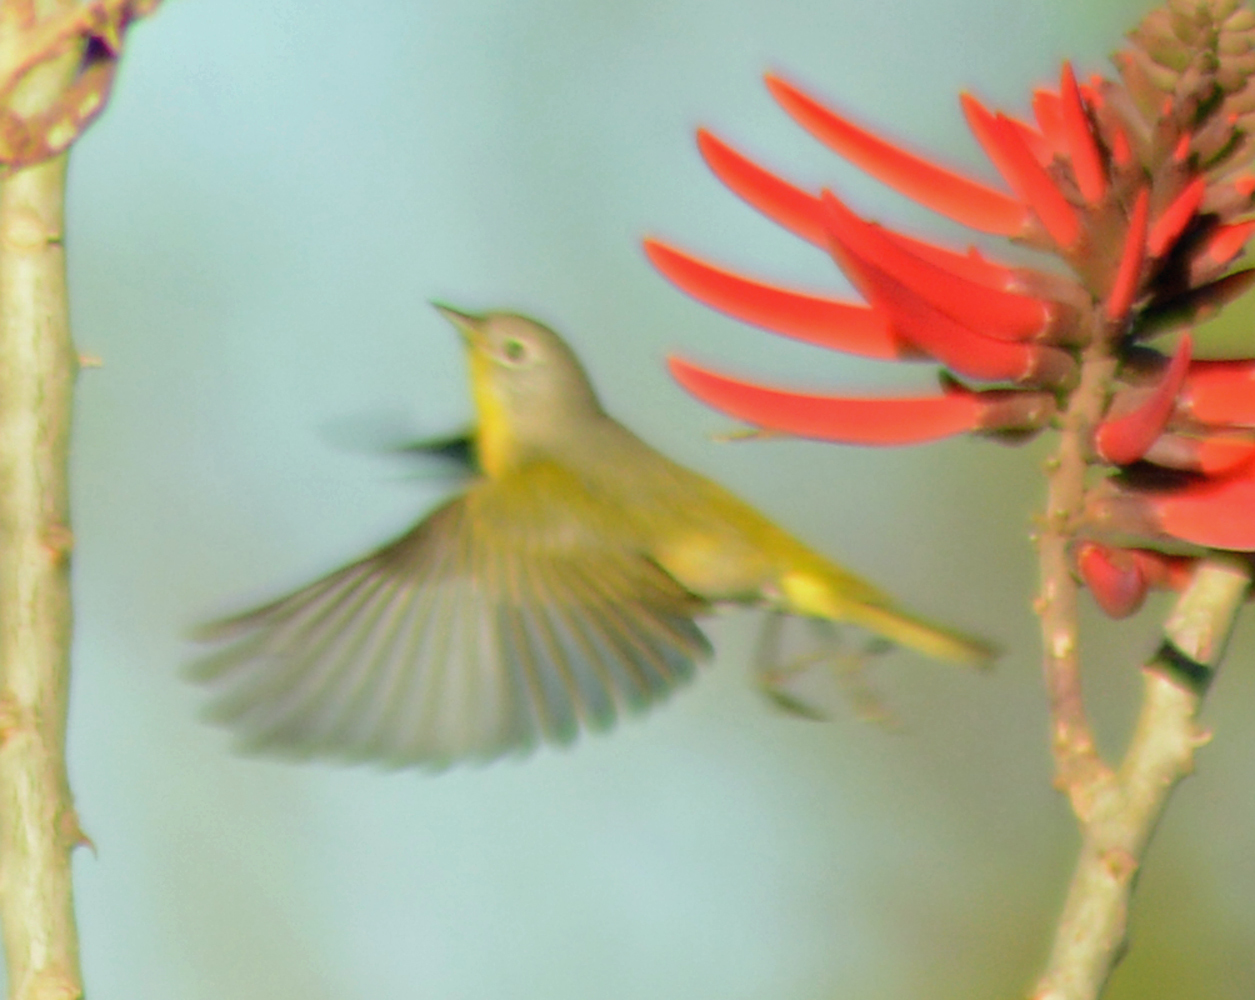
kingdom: Animalia
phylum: Chordata
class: Aves
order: Passeriformes
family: Parulidae
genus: Leiothlypis
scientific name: Leiothlypis ruficapilla
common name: Nashville warbler
